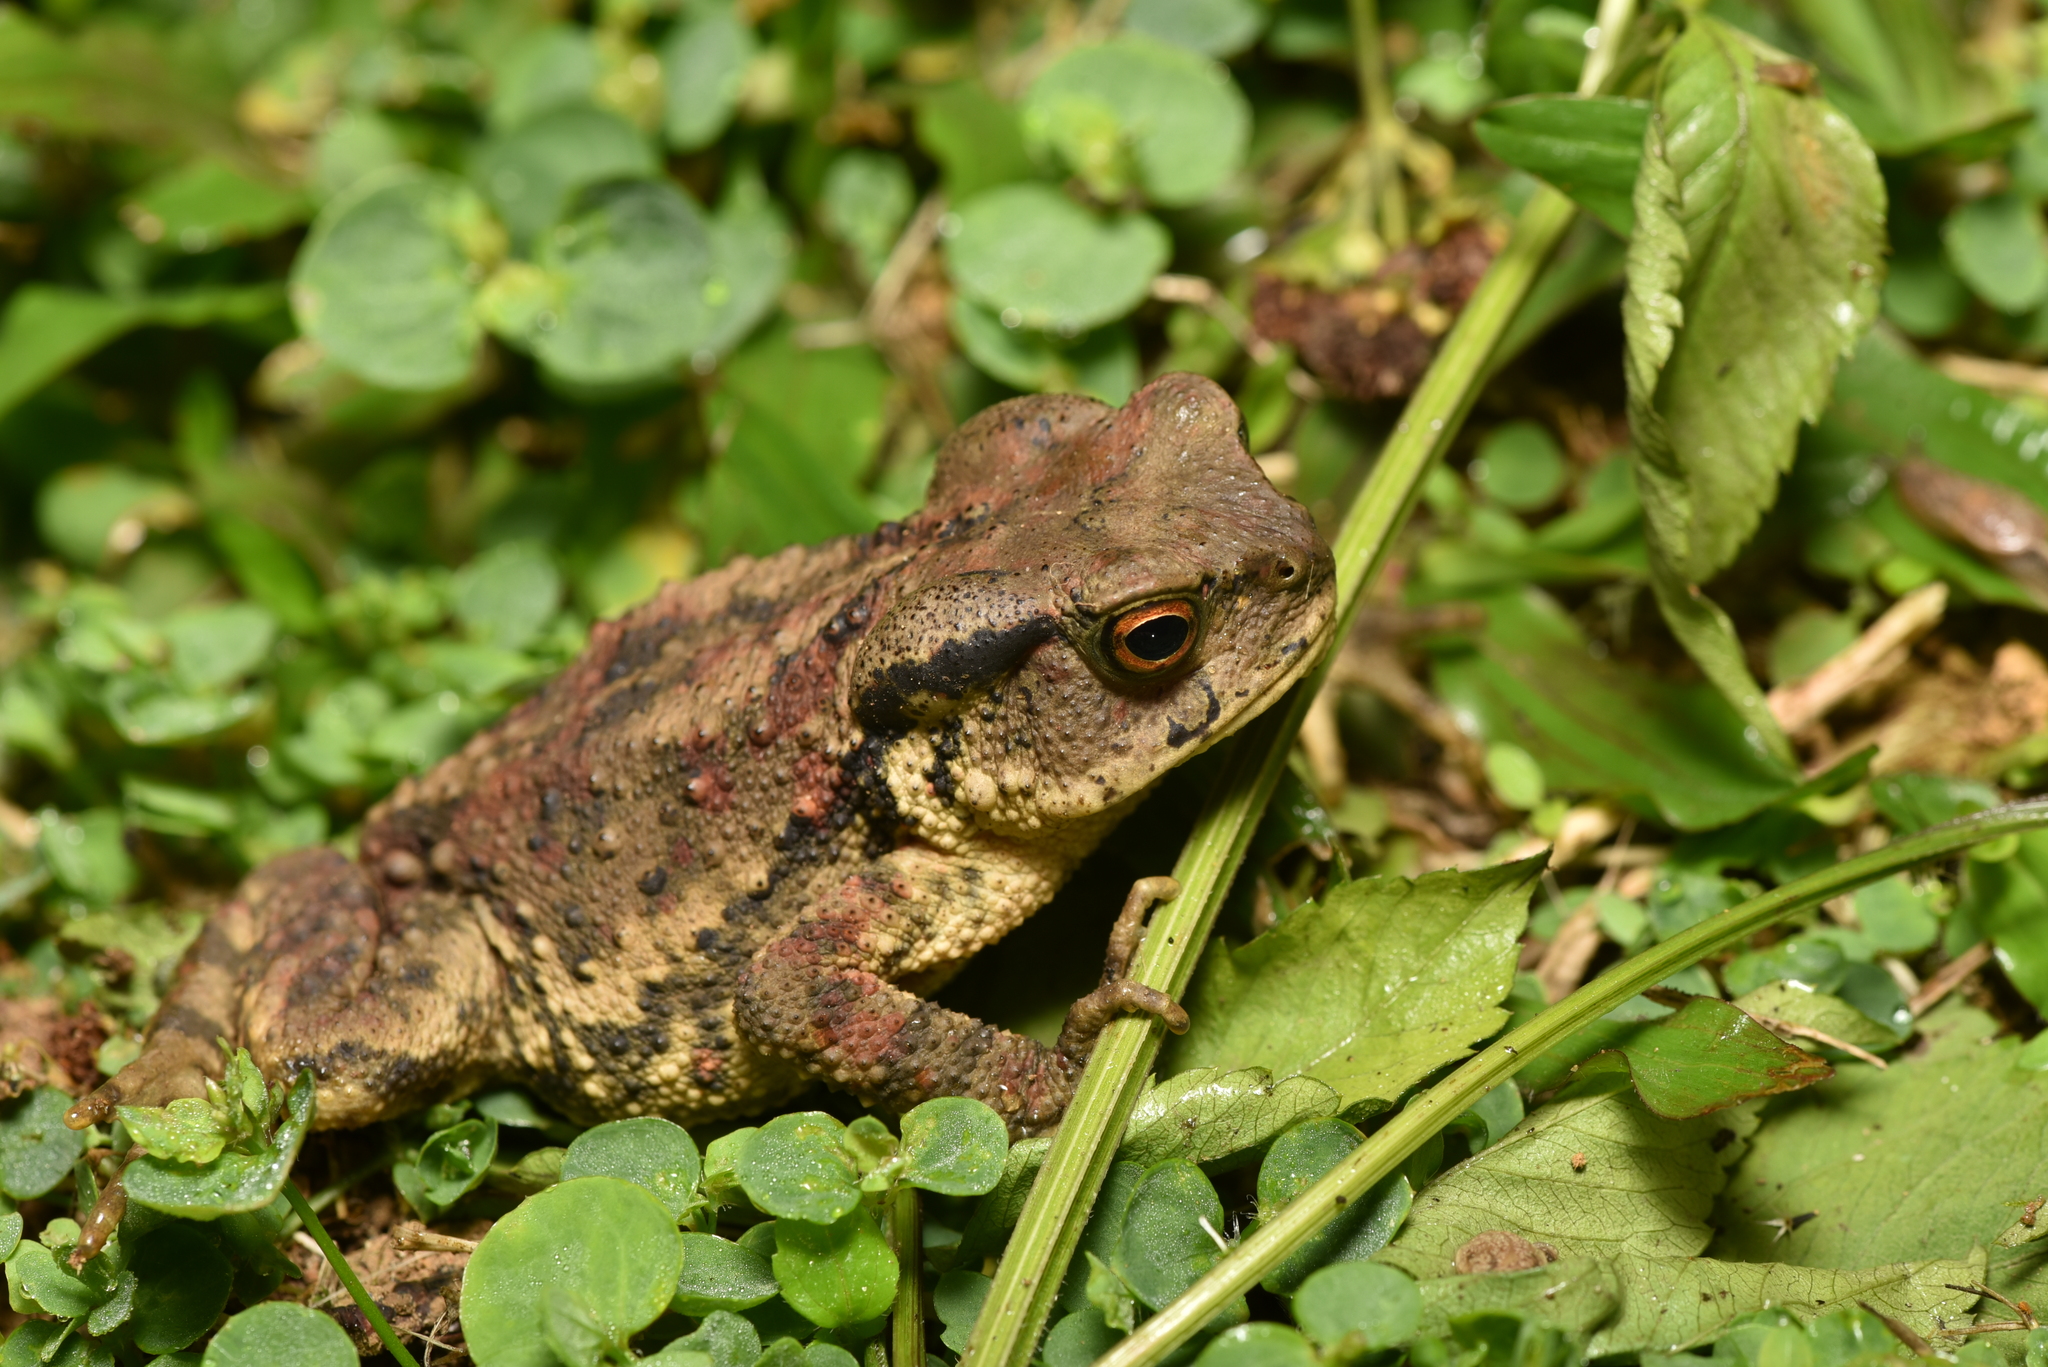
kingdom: Animalia
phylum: Chordata
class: Amphibia
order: Anura
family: Bufonidae
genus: Bufo
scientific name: Bufo bankorensis
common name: Bankor toad
